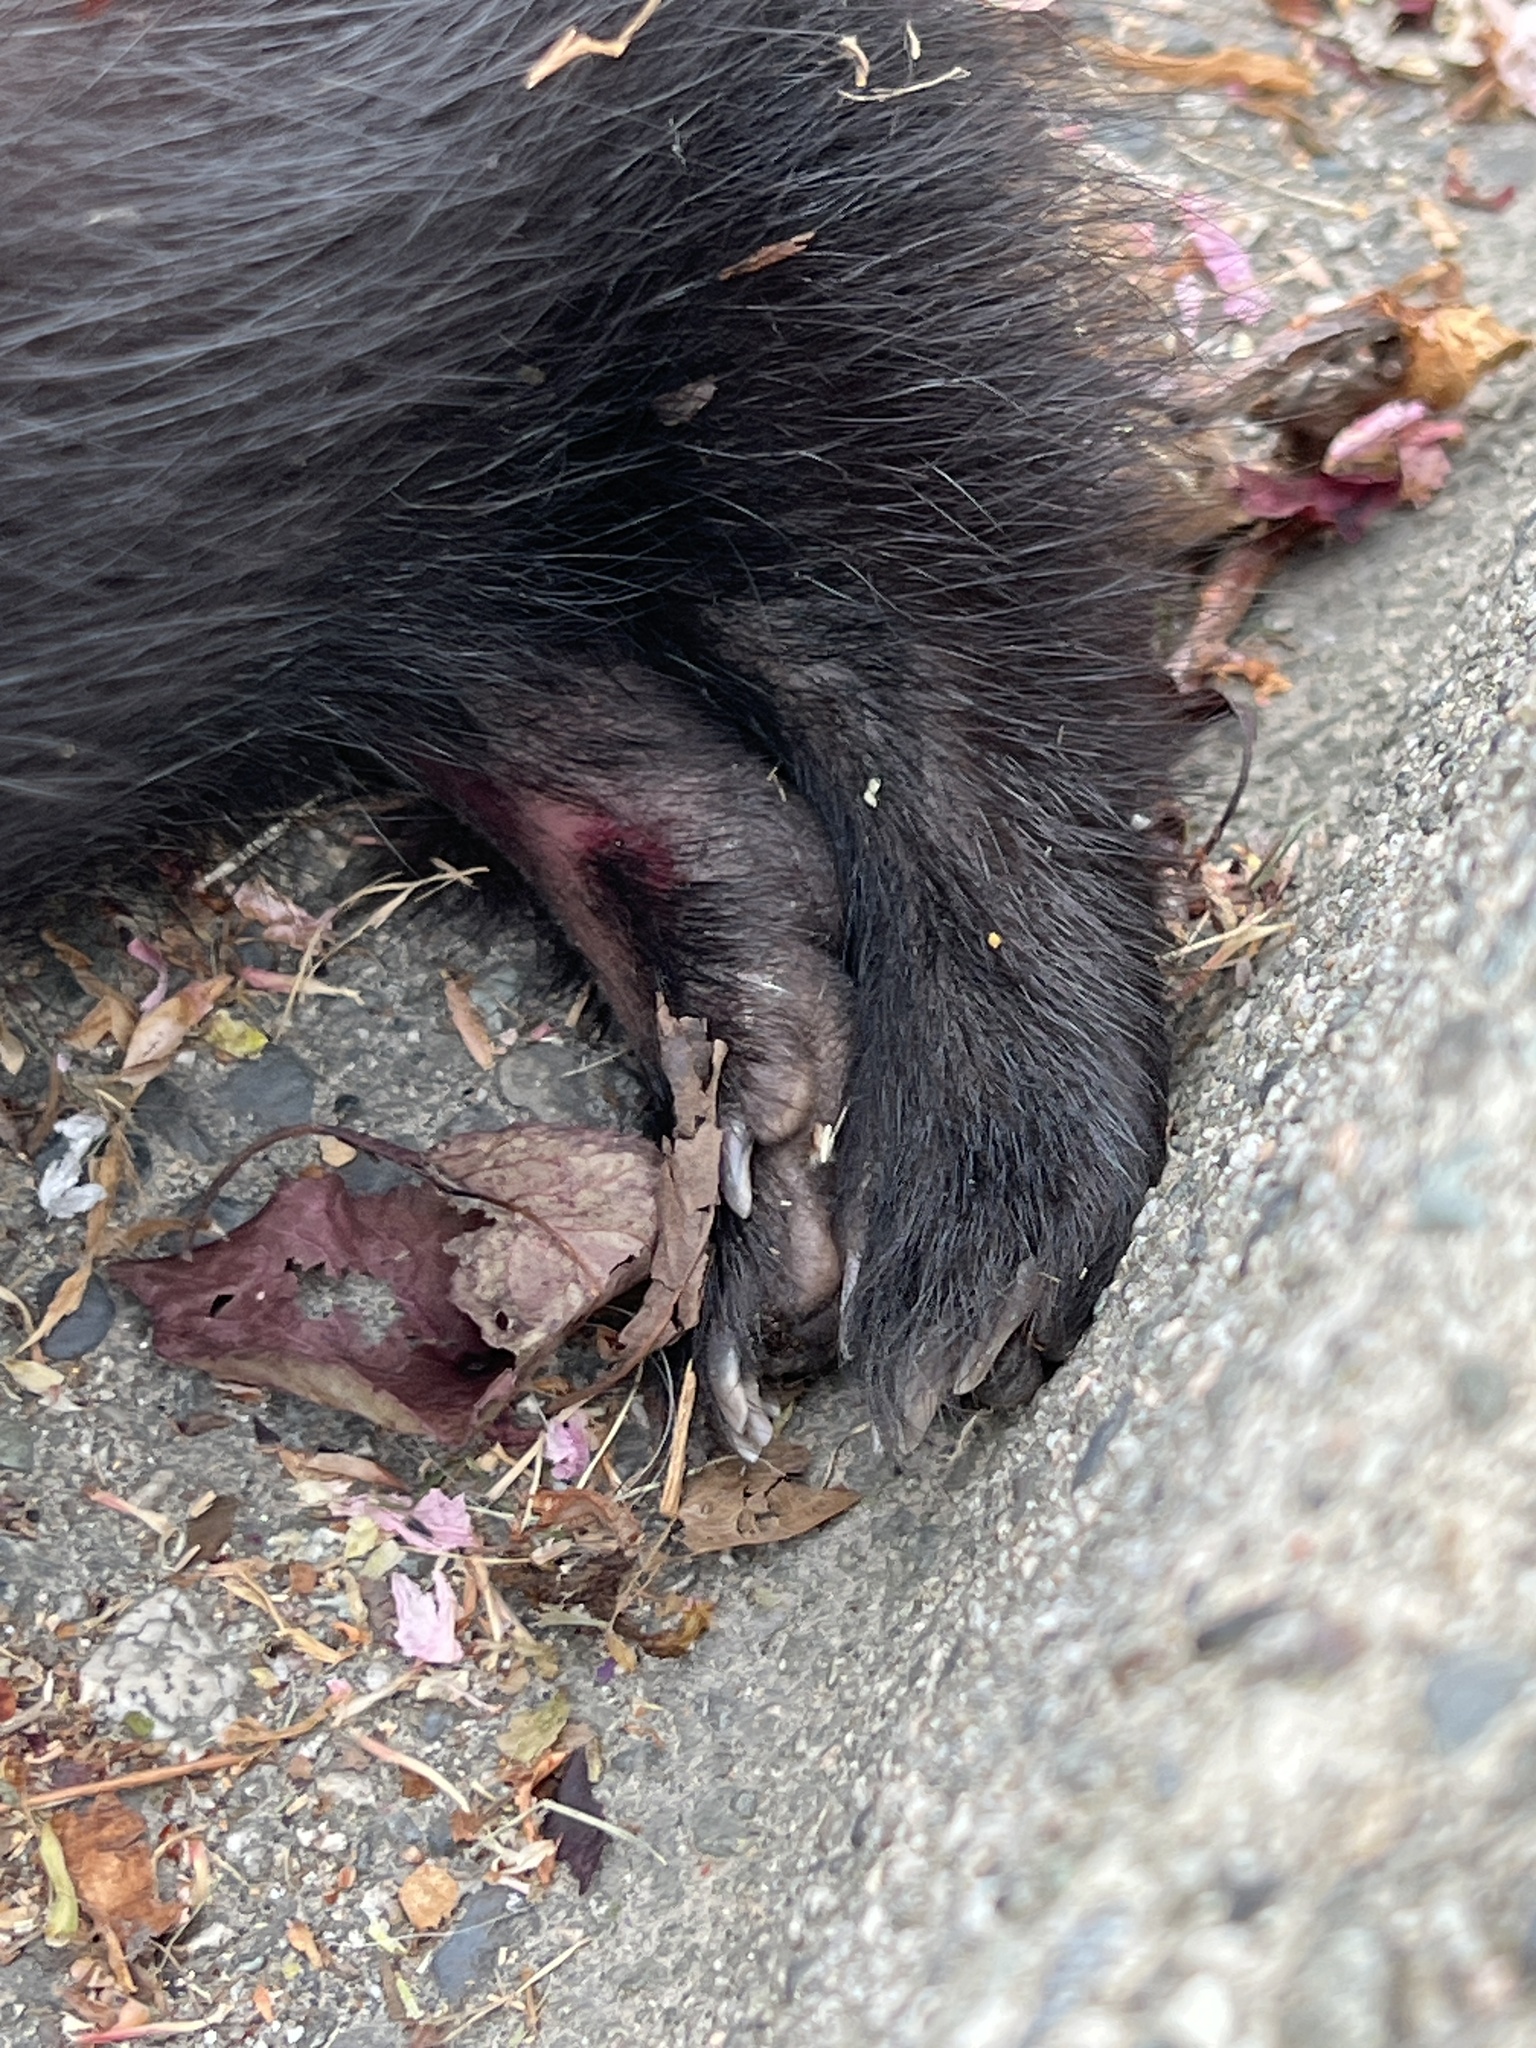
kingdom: Animalia
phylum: Chordata
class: Mammalia
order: Carnivora
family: Mephitidae
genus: Mephitis
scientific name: Mephitis mephitis
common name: Striped skunk
